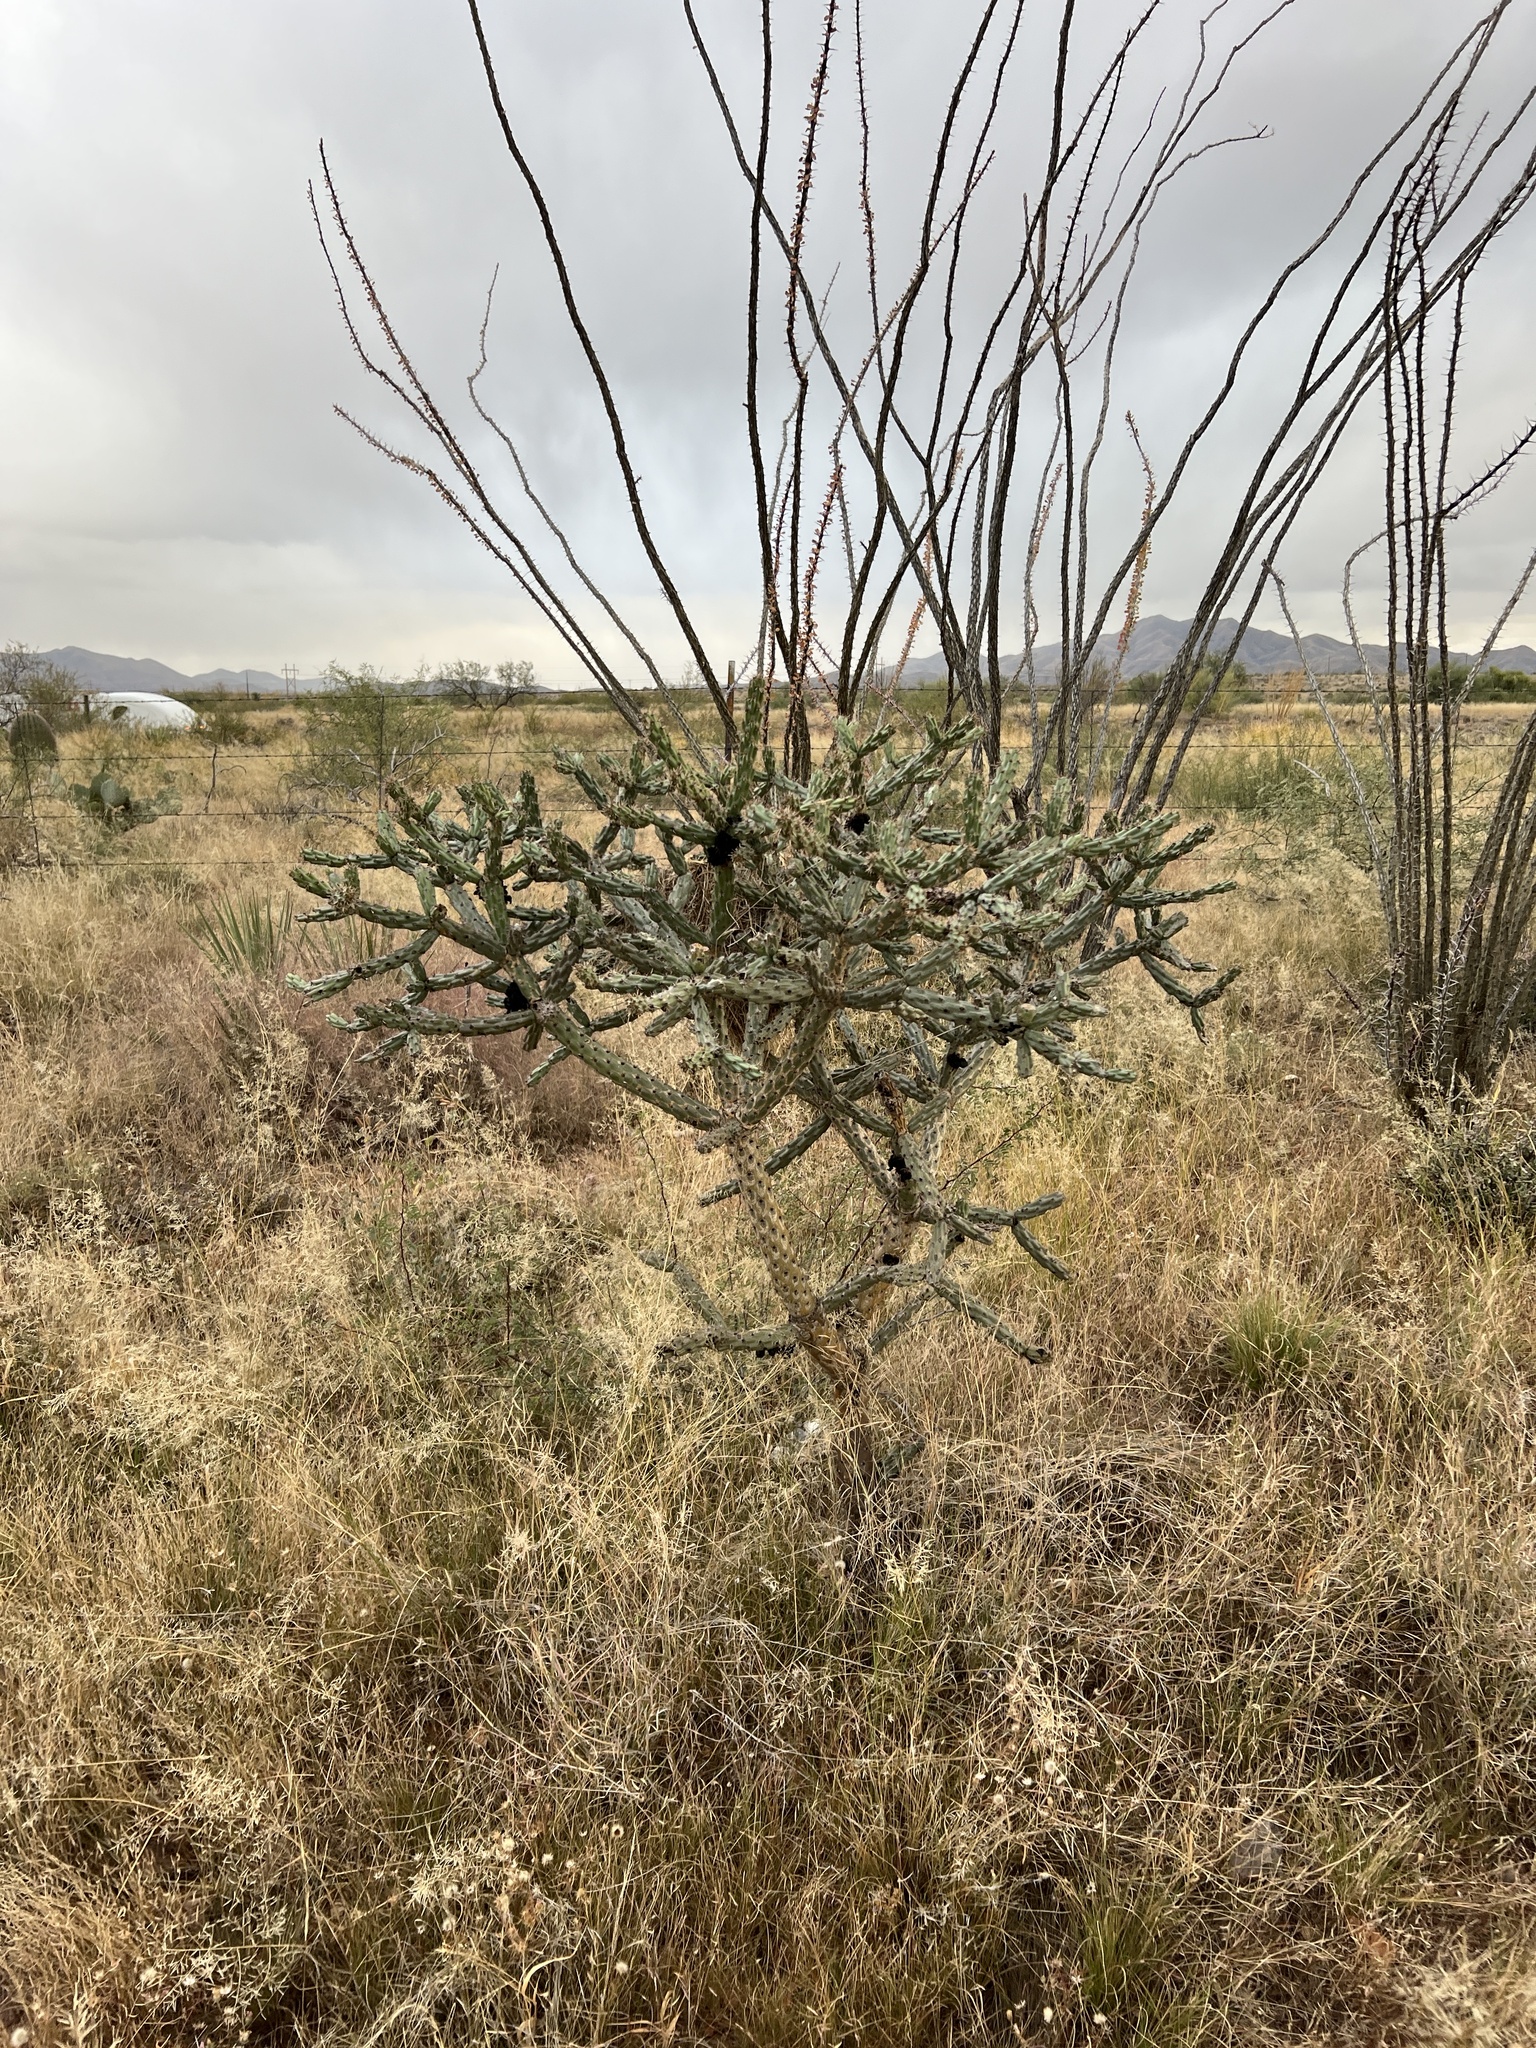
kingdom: Plantae
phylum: Tracheophyta
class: Magnoliopsida
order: Caryophyllales
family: Cactaceae
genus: Cylindropuntia
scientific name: Cylindropuntia thurberi
